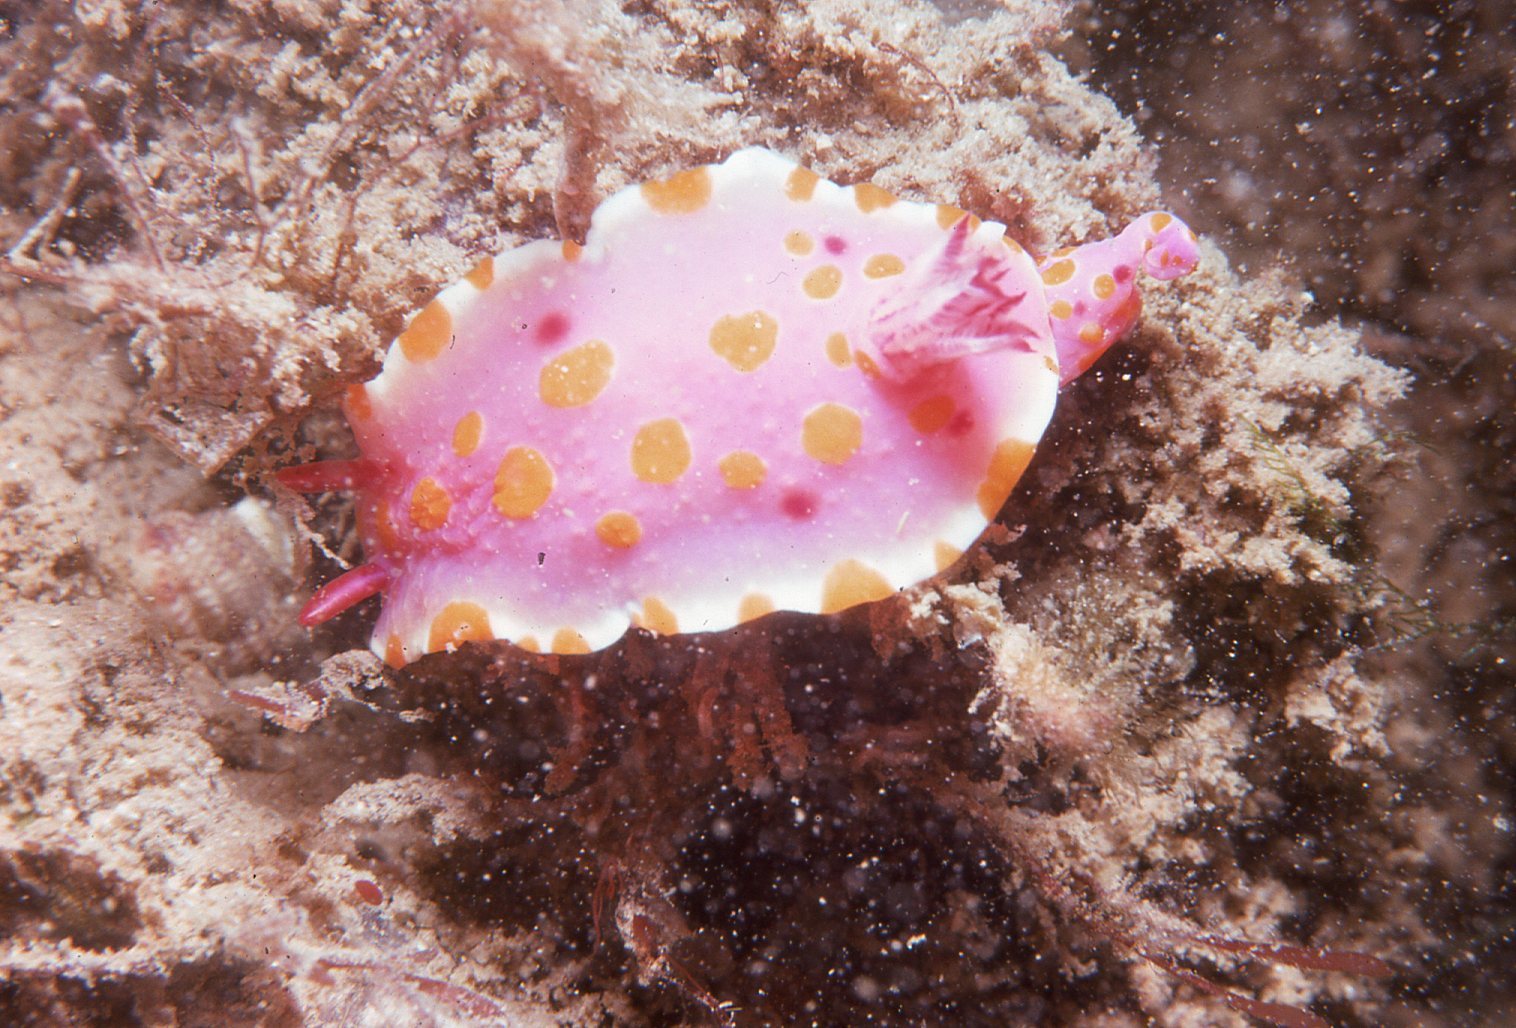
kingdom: Animalia
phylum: Mollusca
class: Gastropoda
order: Nudibranchia
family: Chromodorididae
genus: Ceratosoma
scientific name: Ceratosoma amoenum
